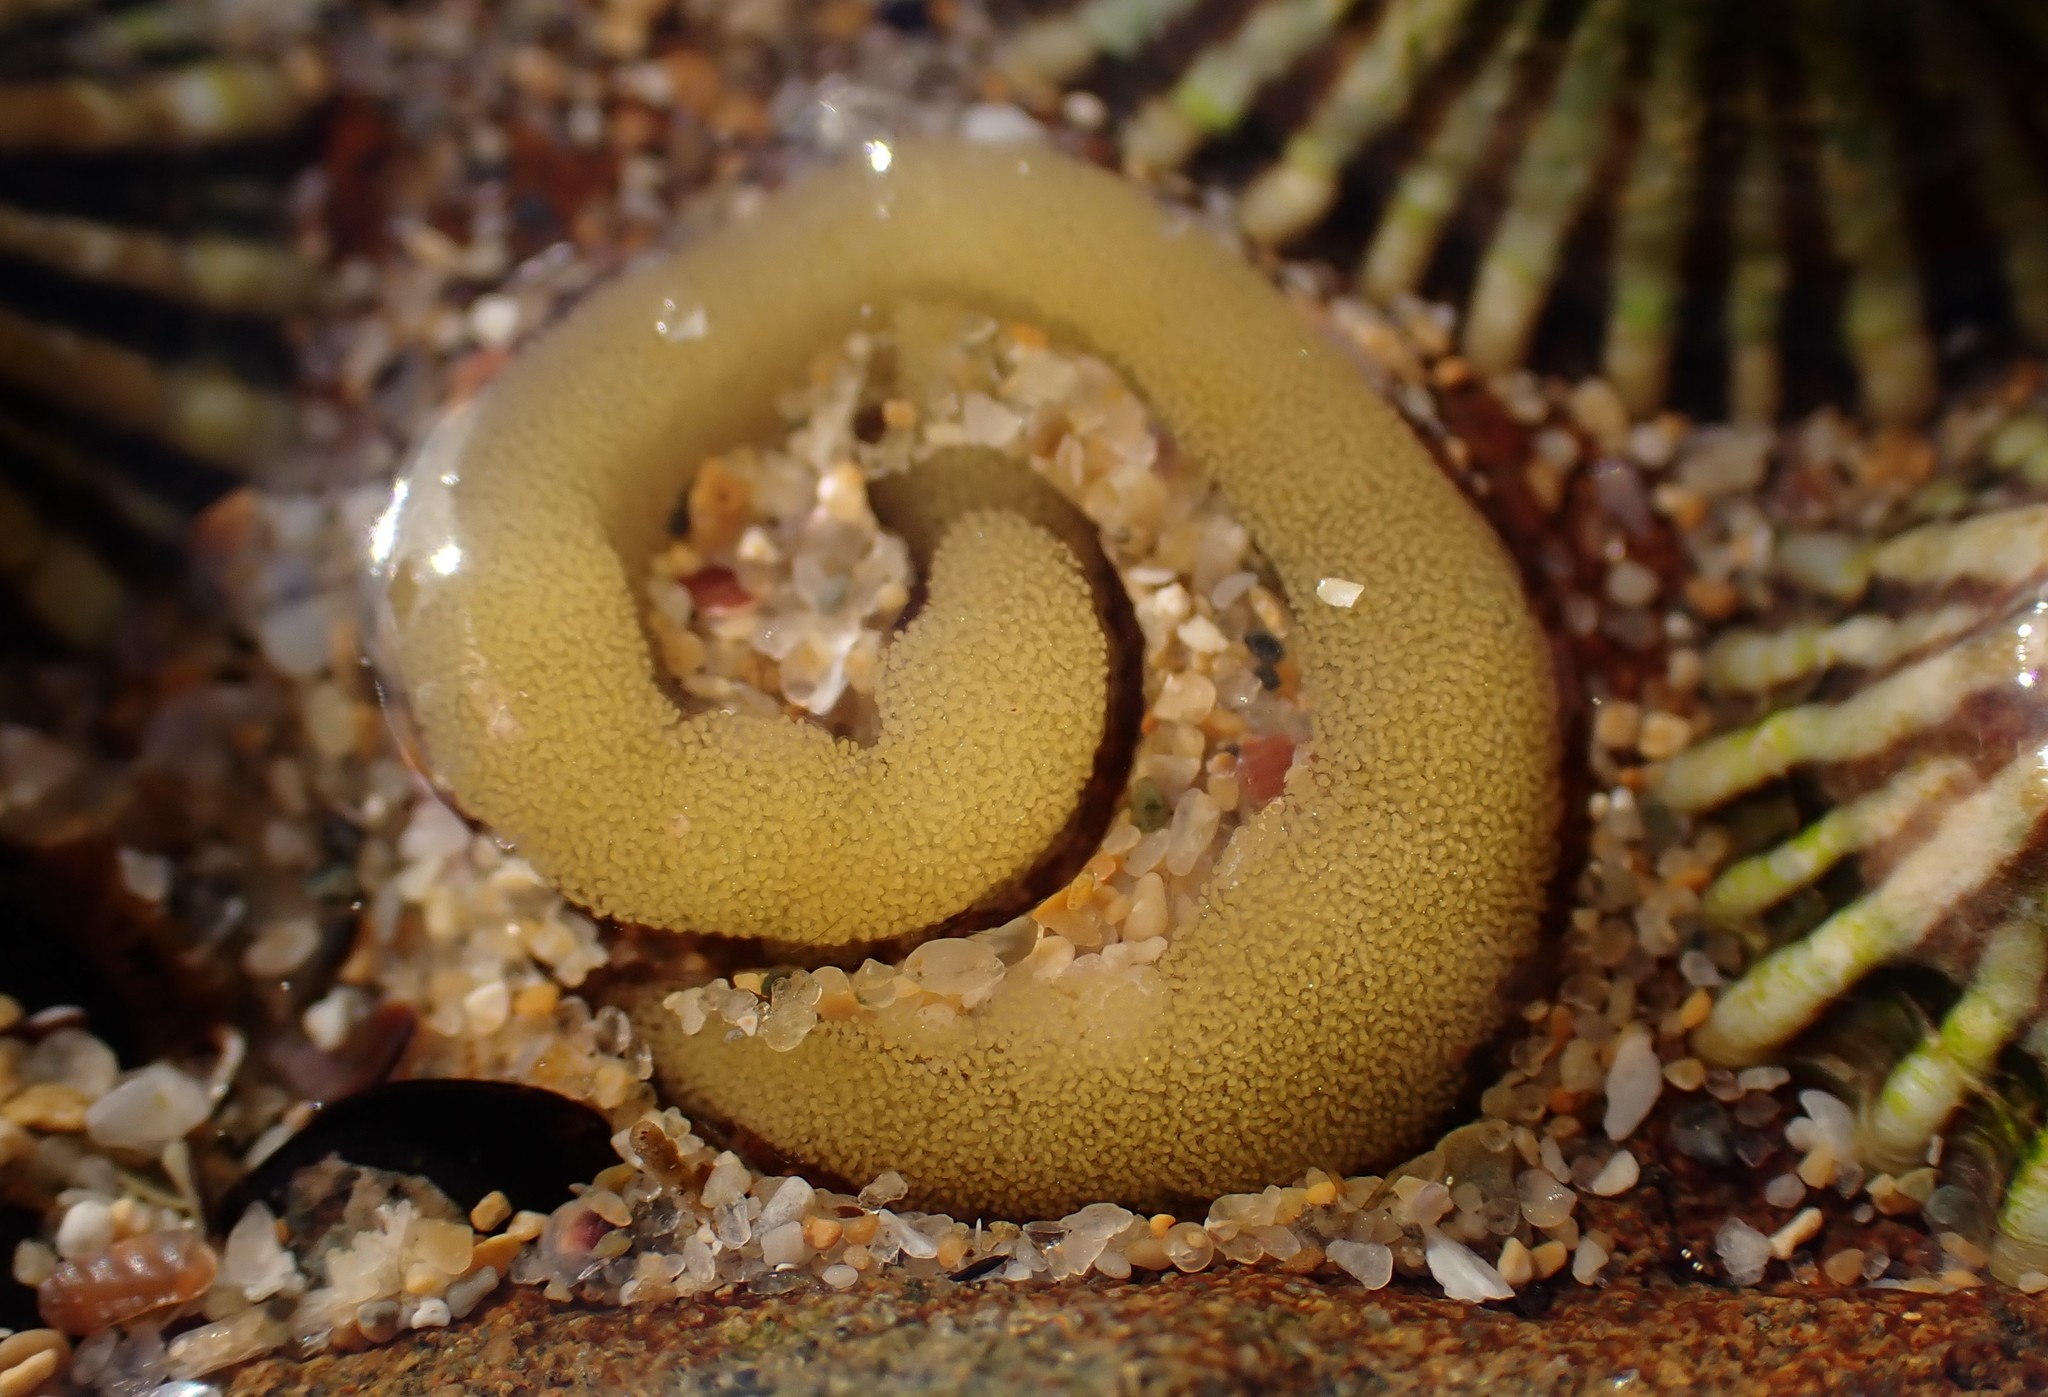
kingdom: Animalia
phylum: Mollusca
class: Gastropoda
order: Siphonariida
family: Siphonariidae
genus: Siphonaria
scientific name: Siphonaria diemenensis
